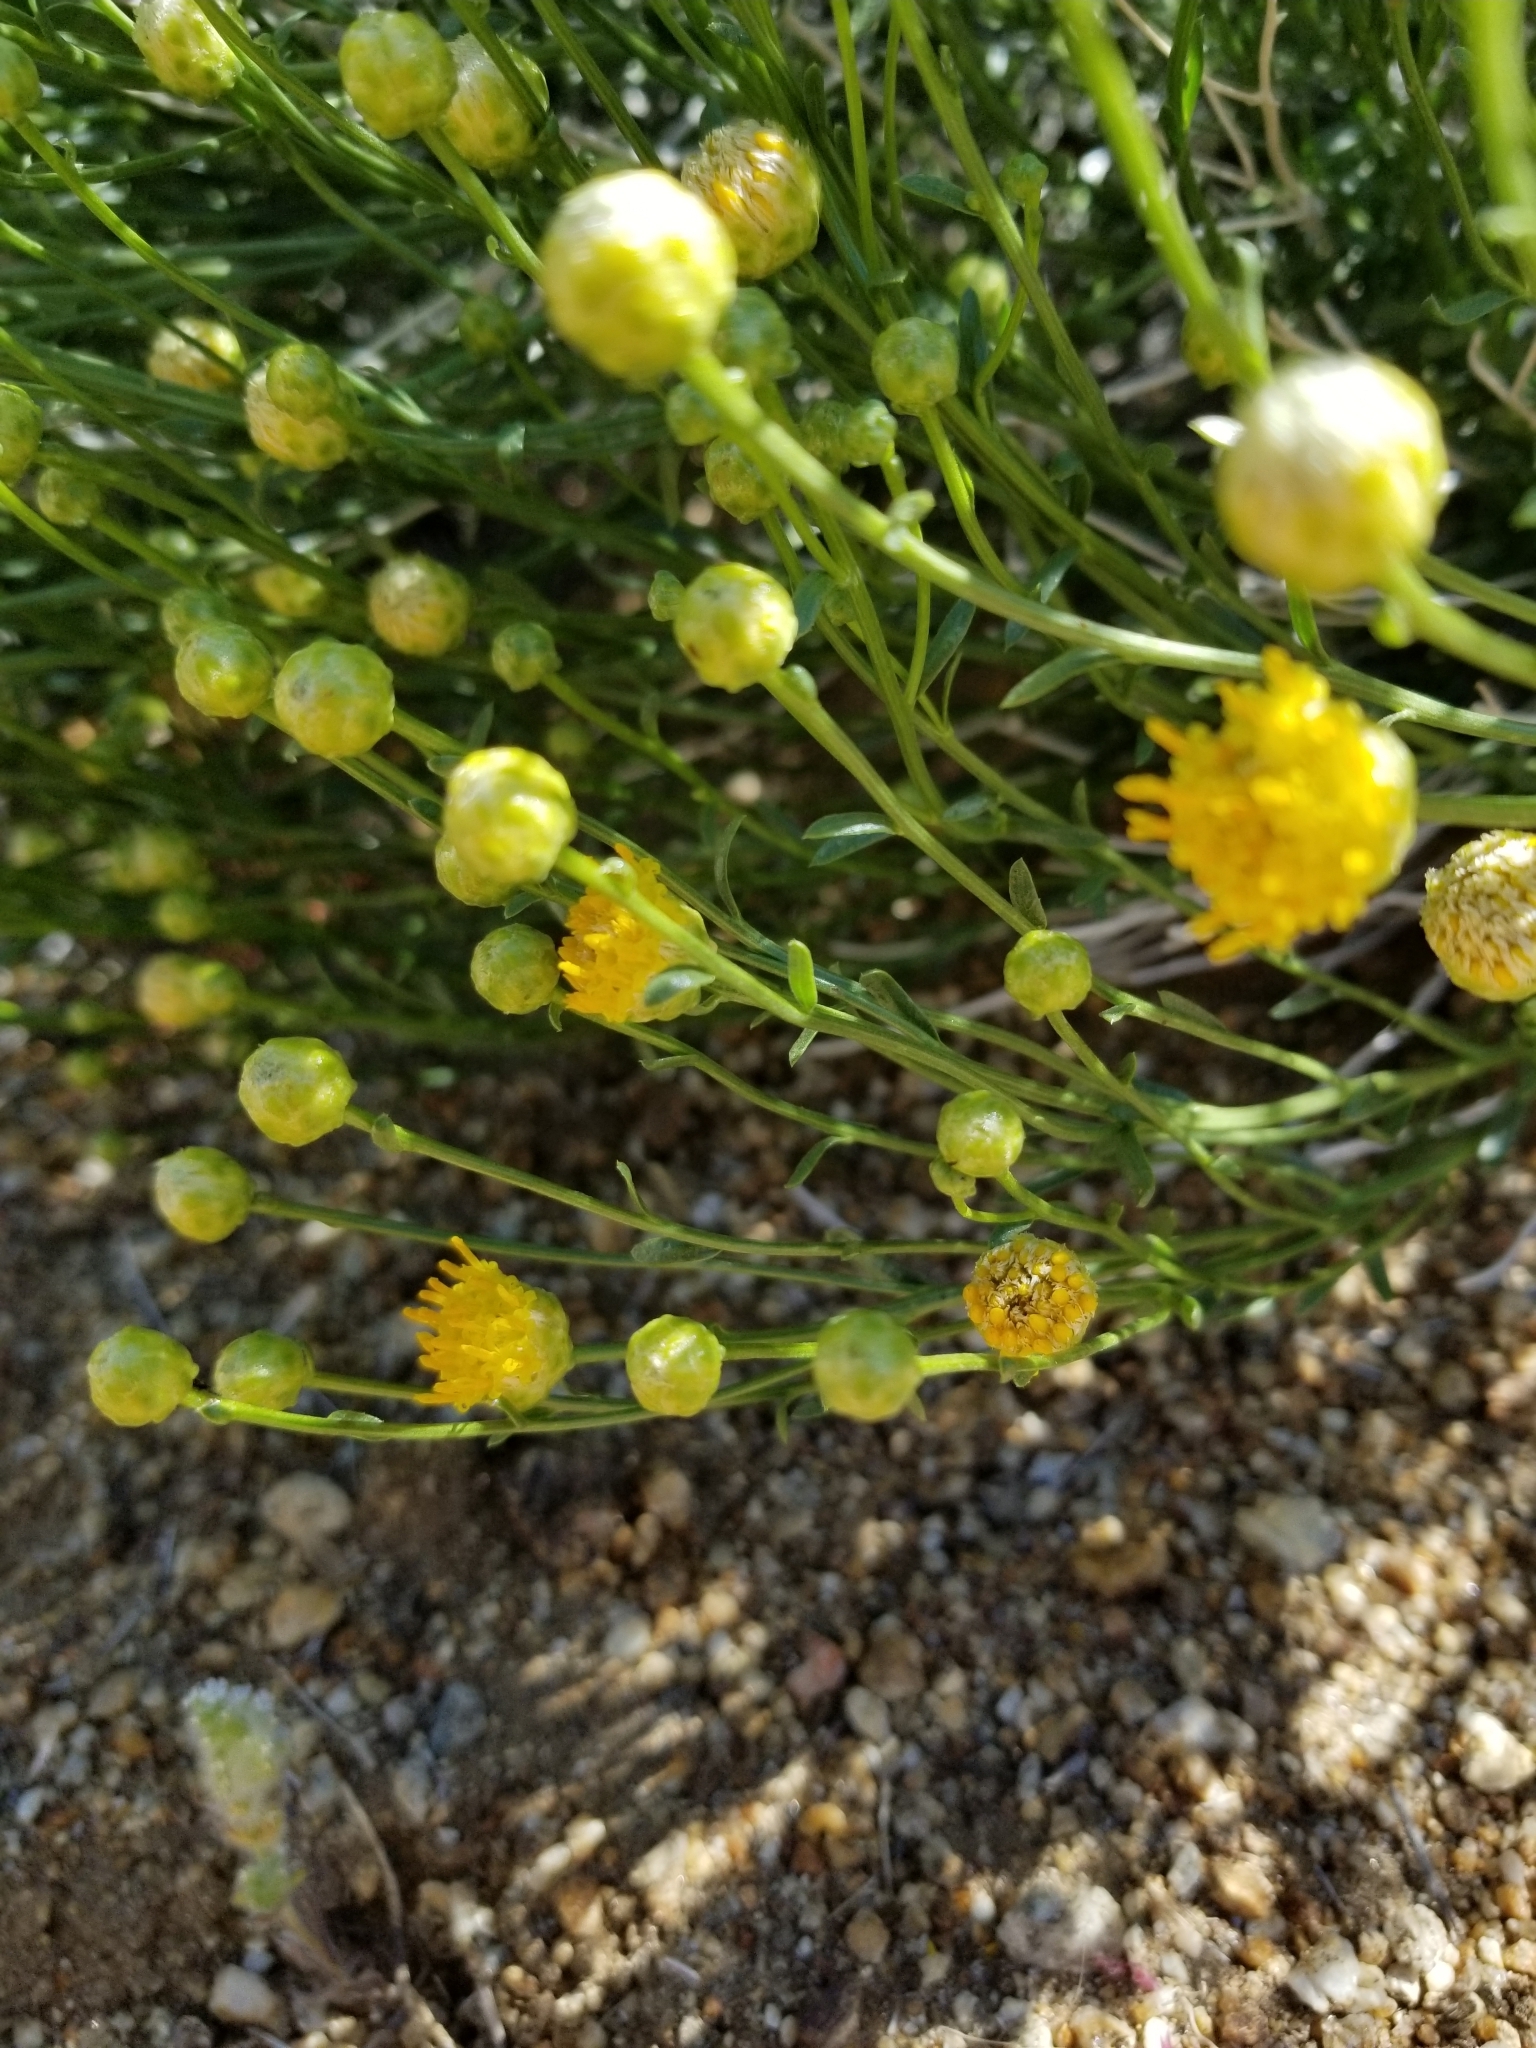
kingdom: Plantae
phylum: Tracheophyta
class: Magnoliopsida
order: Asterales
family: Asteraceae
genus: Acamptopappus
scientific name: Acamptopappus sphaerocephalus
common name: Goldenhead
